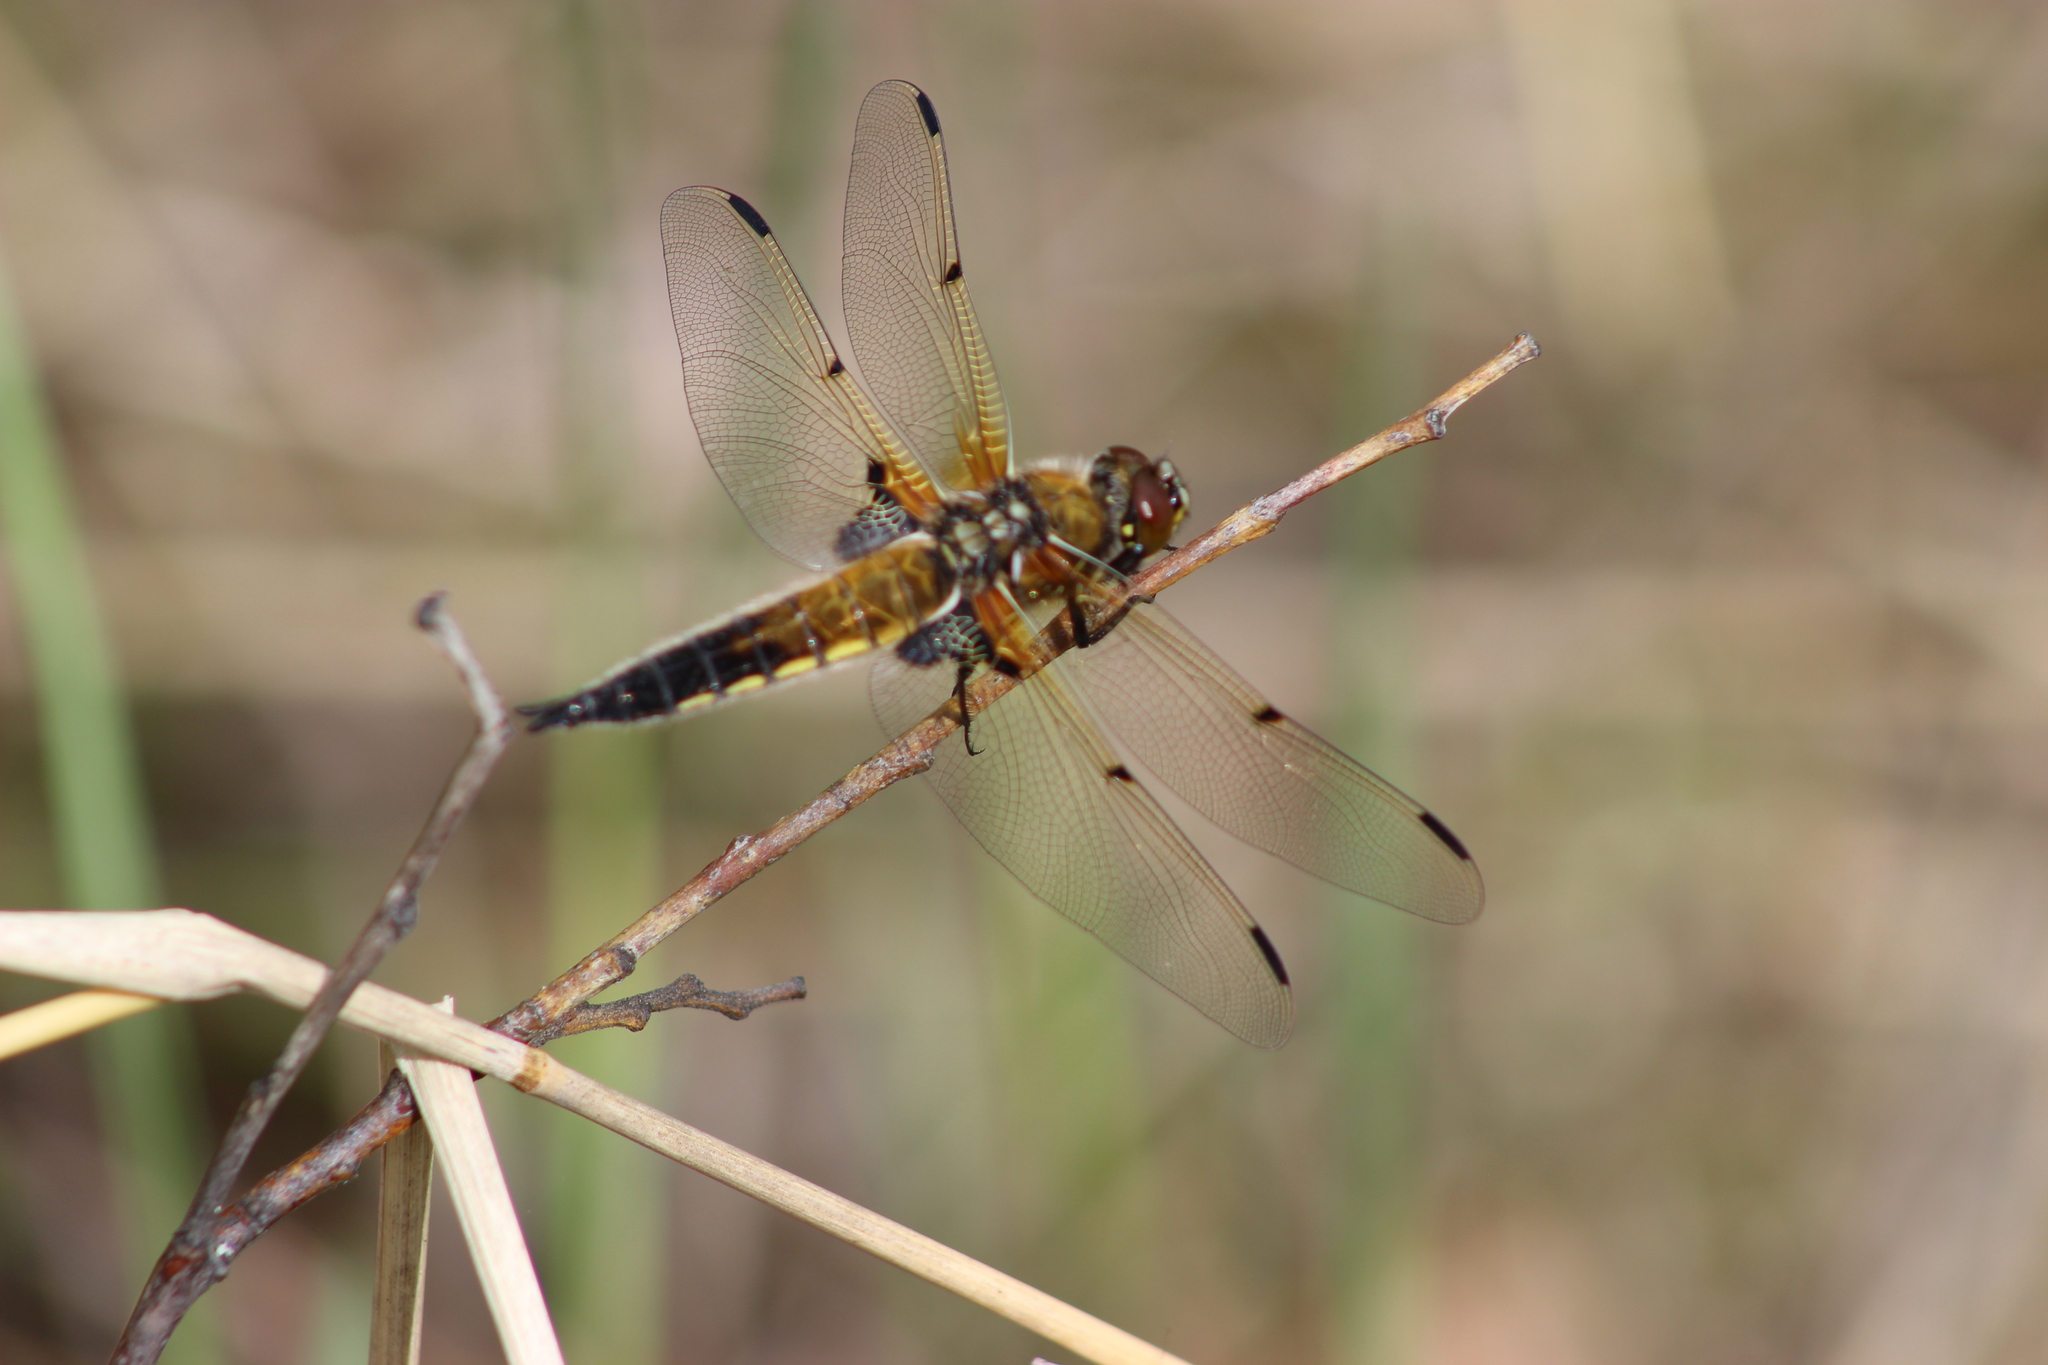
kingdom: Animalia
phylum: Arthropoda
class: Insecta
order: Odonata
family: Libellulidae
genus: Libellula
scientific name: Libellula quadrimaculata
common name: Four-spotted chaser
